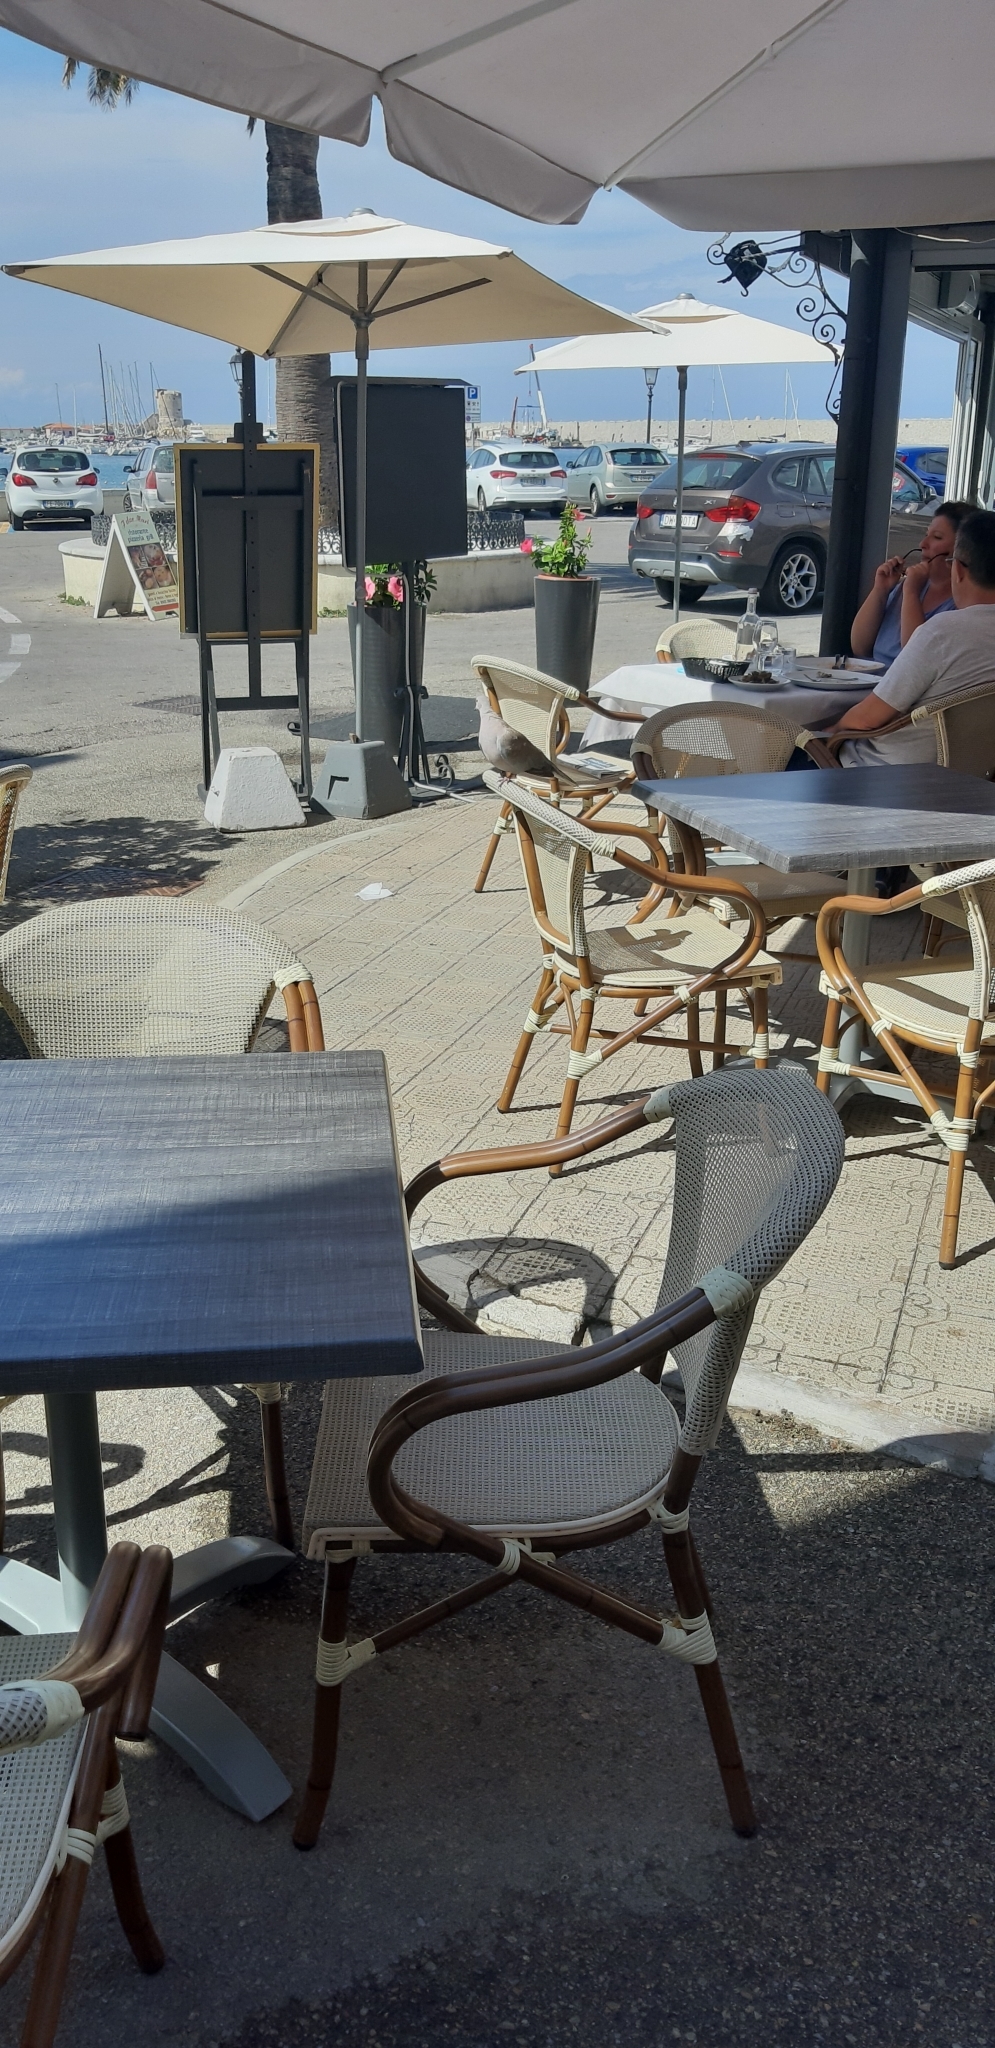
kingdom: Animalia
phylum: Chordata
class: Aves
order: Columbiformes
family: Columbidae
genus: Streptopelia
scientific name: Streptopelia decaocto
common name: Eurasian collared dove
